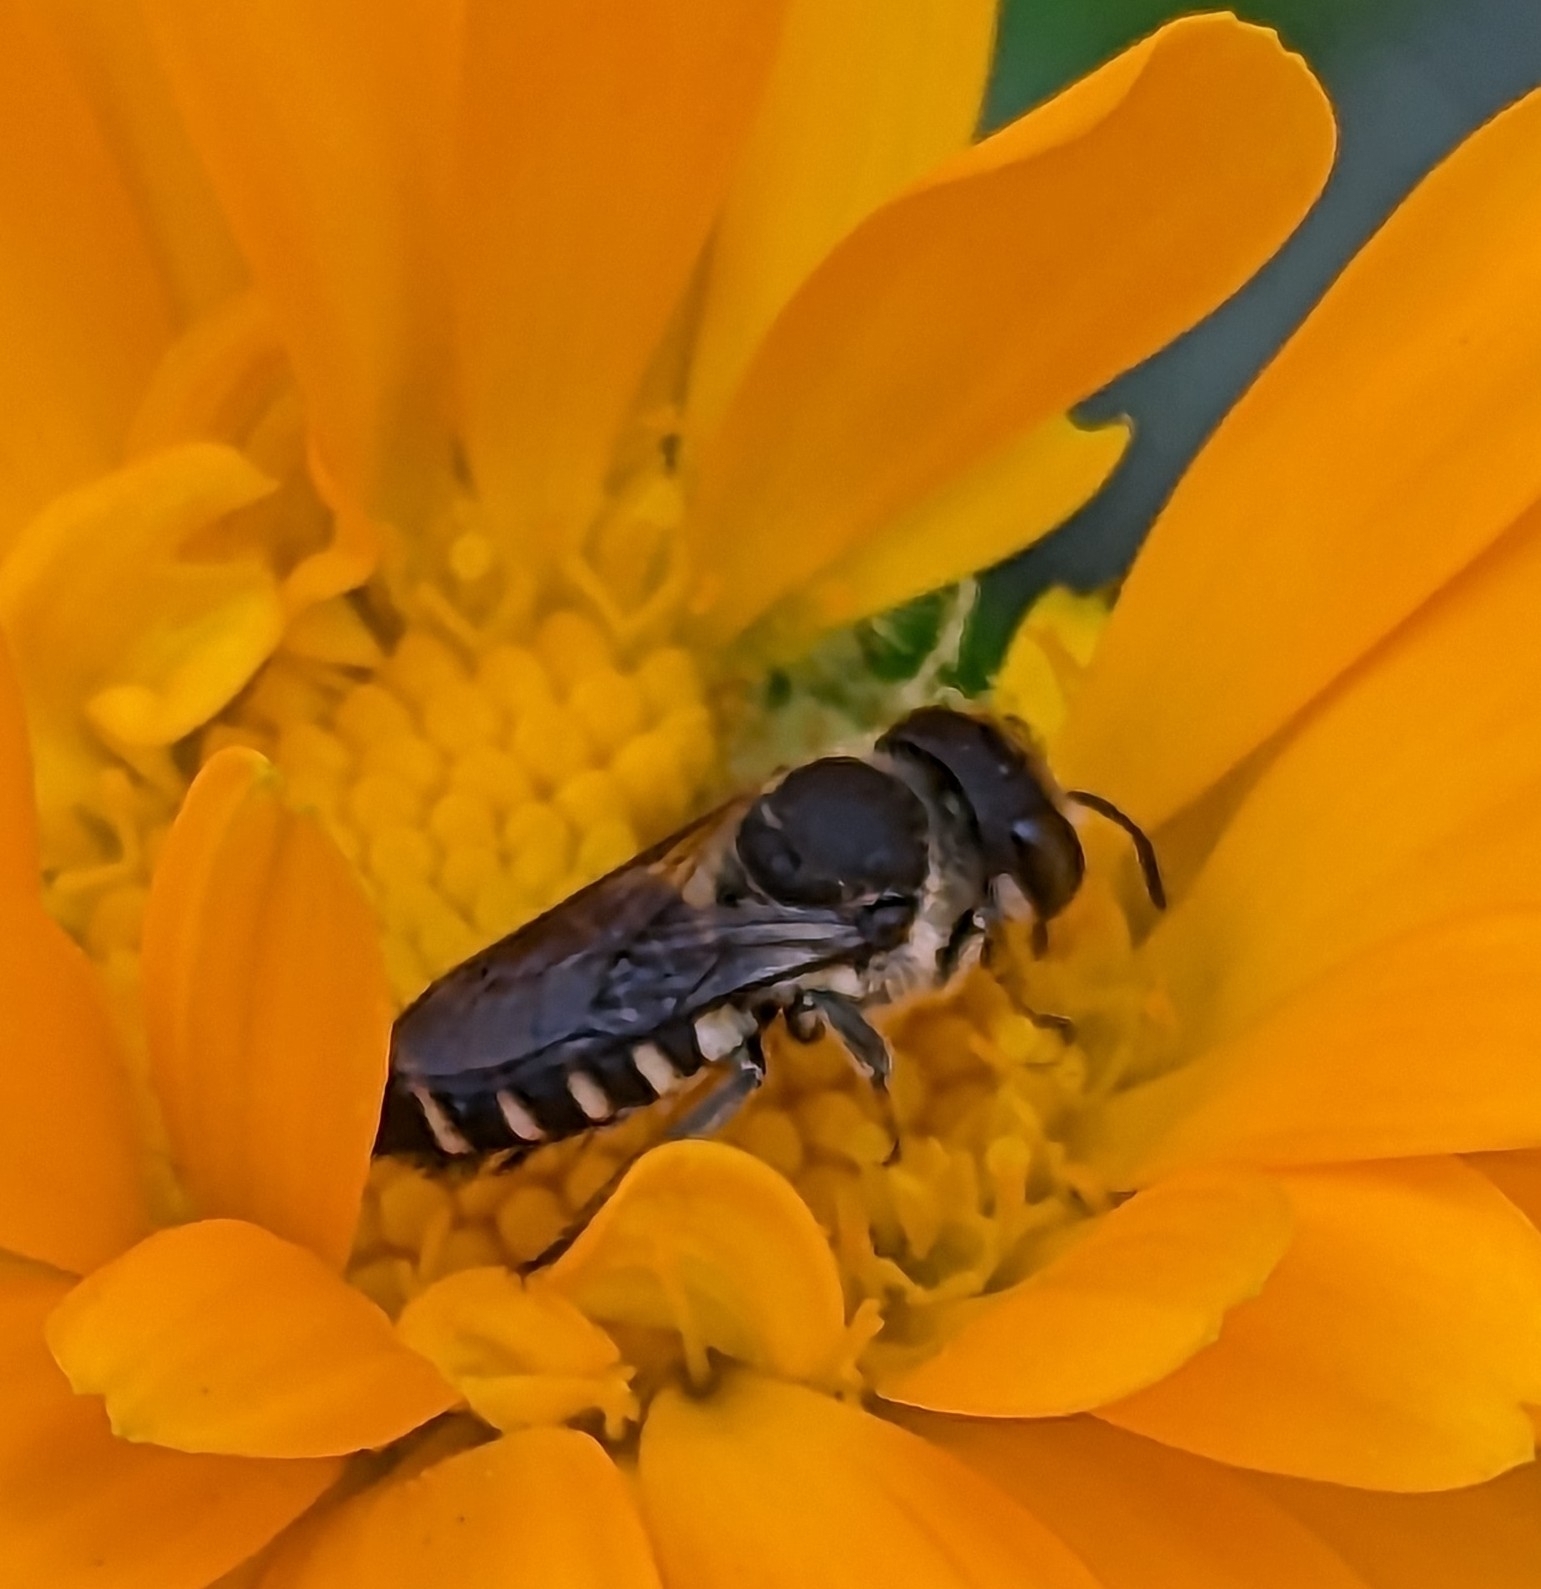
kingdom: Animalia
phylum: Arthropoda
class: Insecta
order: Hymenoptera
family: Megachilidae
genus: Megachile
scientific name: Megachile apicalis
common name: Apical leafcutter bee
